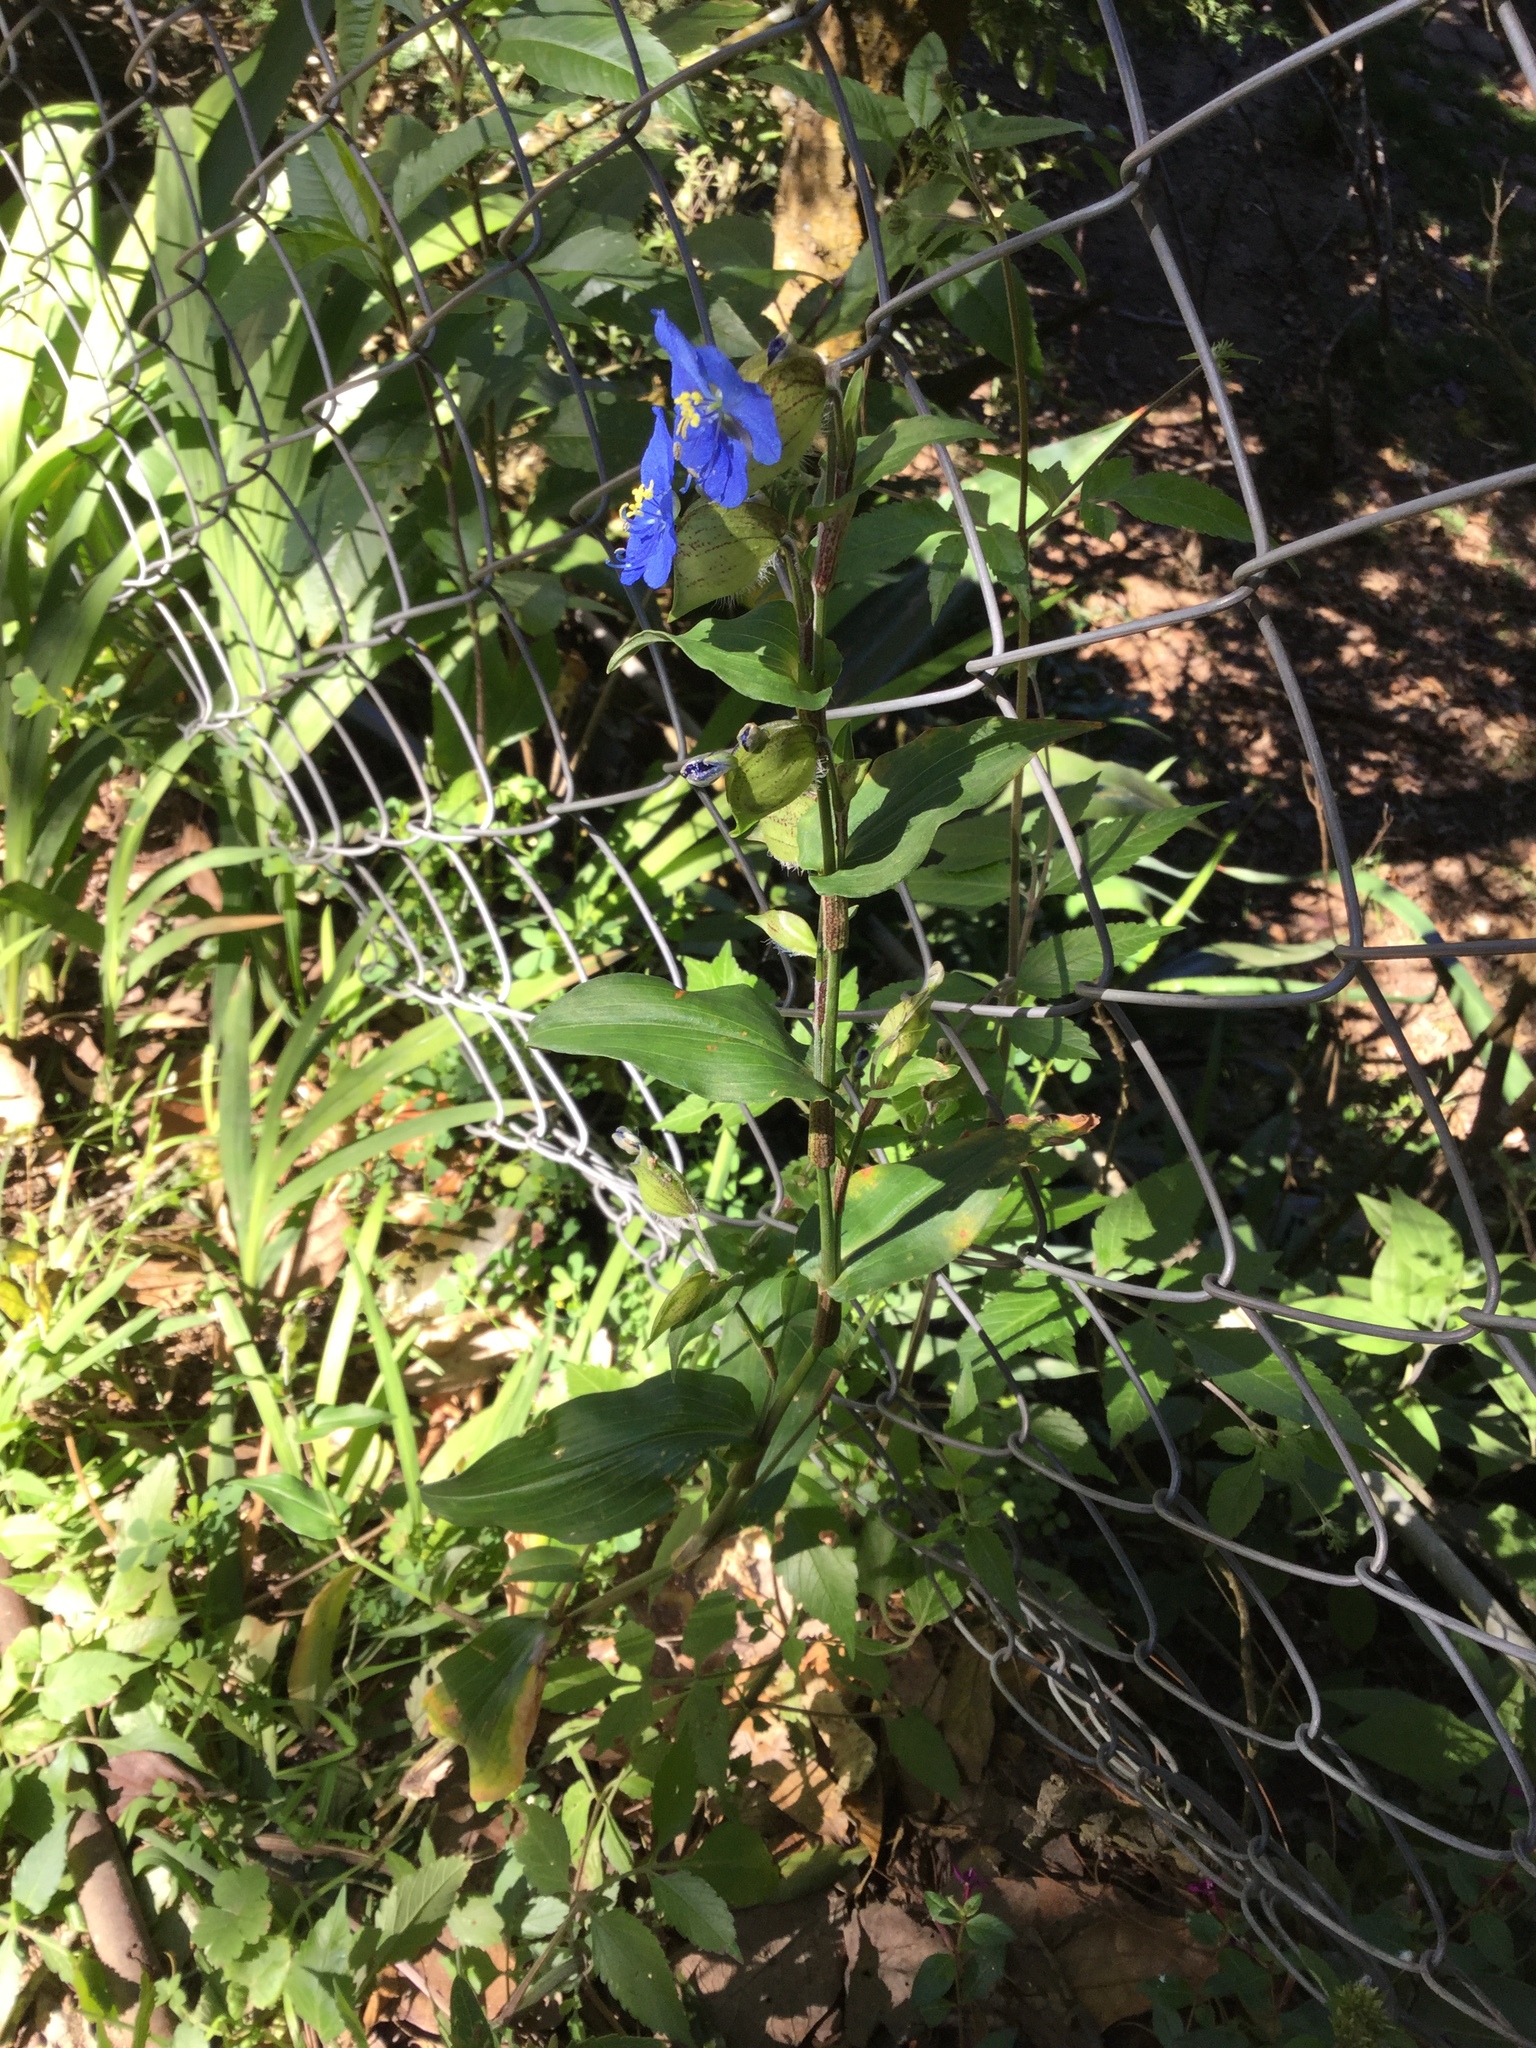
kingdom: Plantae
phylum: Tracheophyta
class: Liliopsida
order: Commelinales
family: Commelinaceae
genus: Commelina
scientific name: Commelina tuberosa
